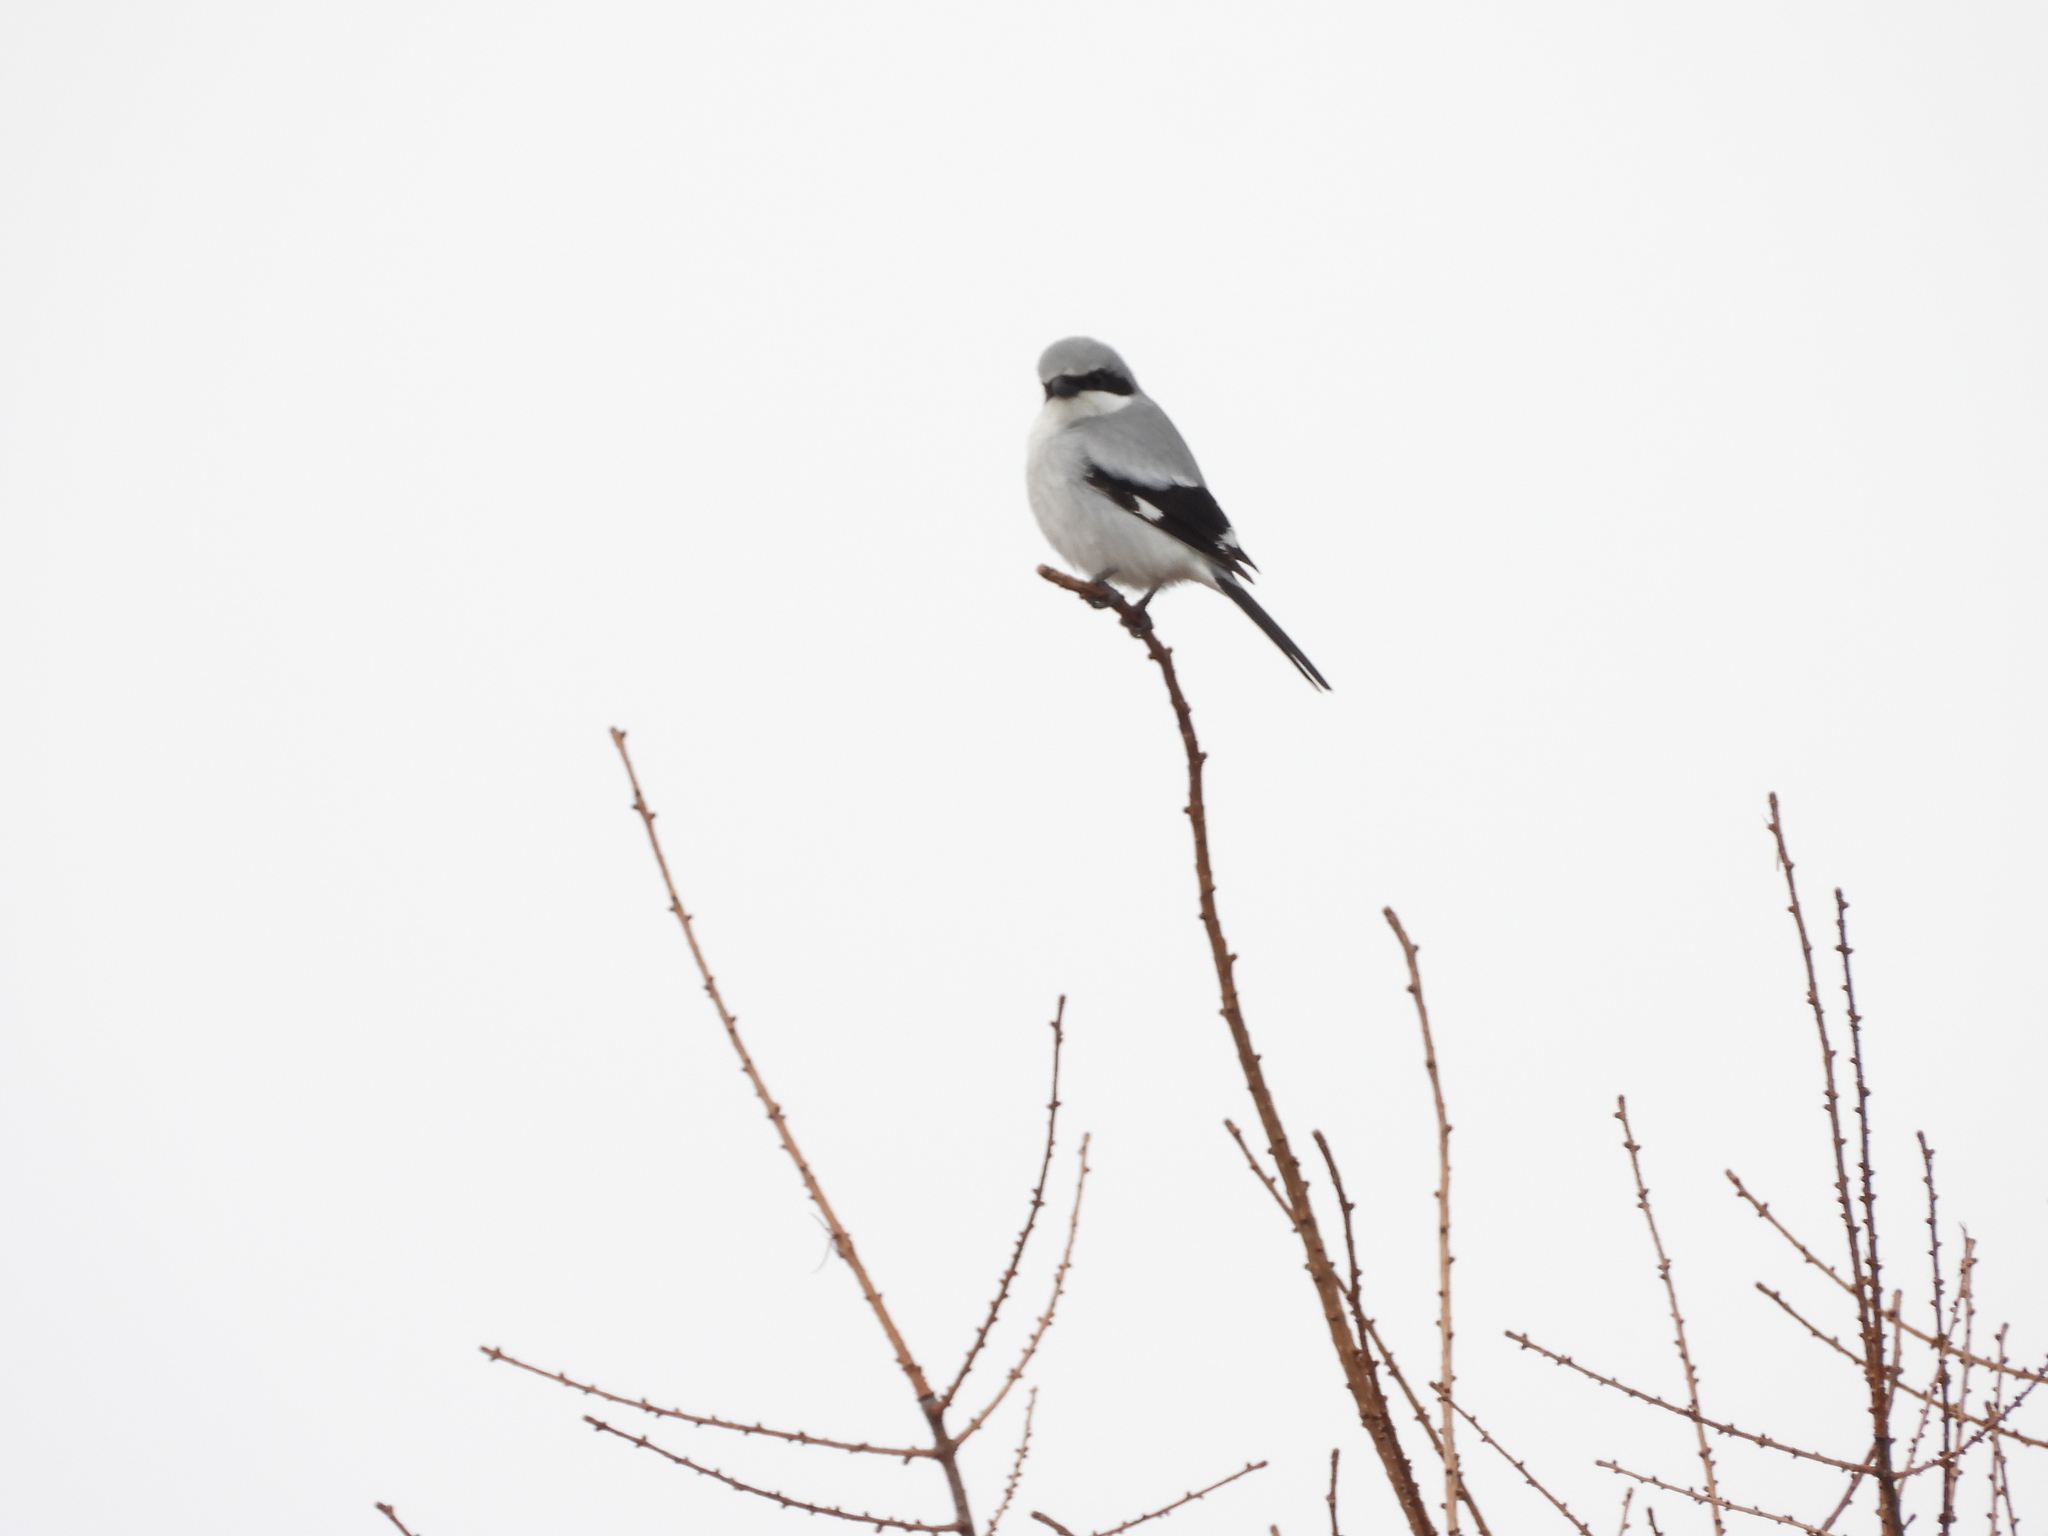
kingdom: Animalia
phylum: Chordata
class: Aves
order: Passeriformes
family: Laniidae
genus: Lanius
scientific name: Lanius ludovicianus
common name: Loggerhead shrike
